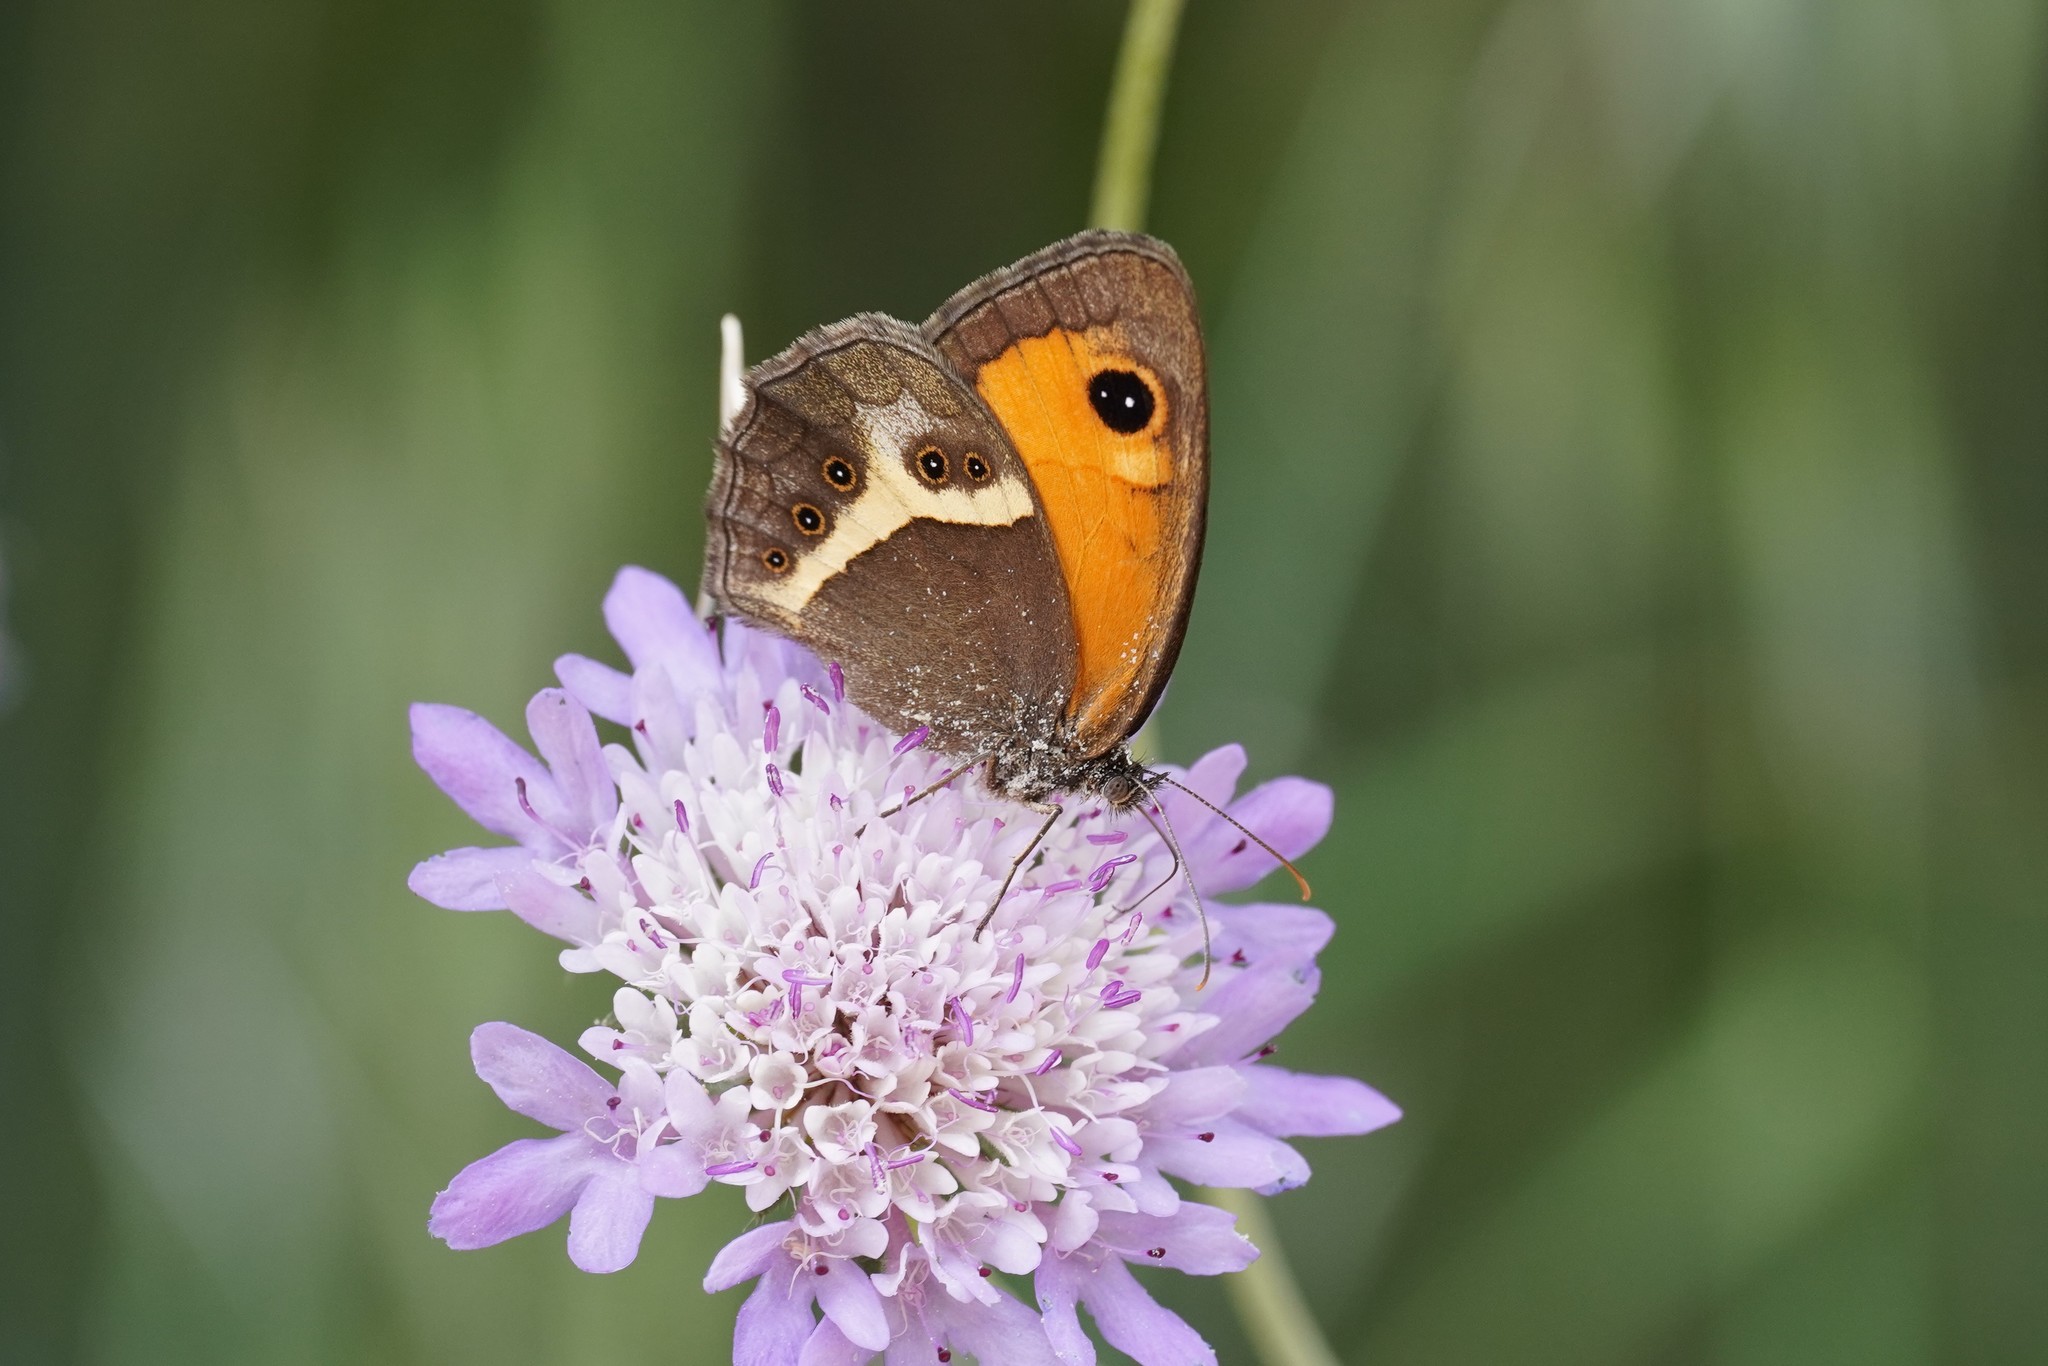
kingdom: Animalia
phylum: Arthropoda
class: Insecta
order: Lepidoptera
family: Nymphalidae
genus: Pyronia
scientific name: Pyronia bathseba
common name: Spanish gatekeeper
